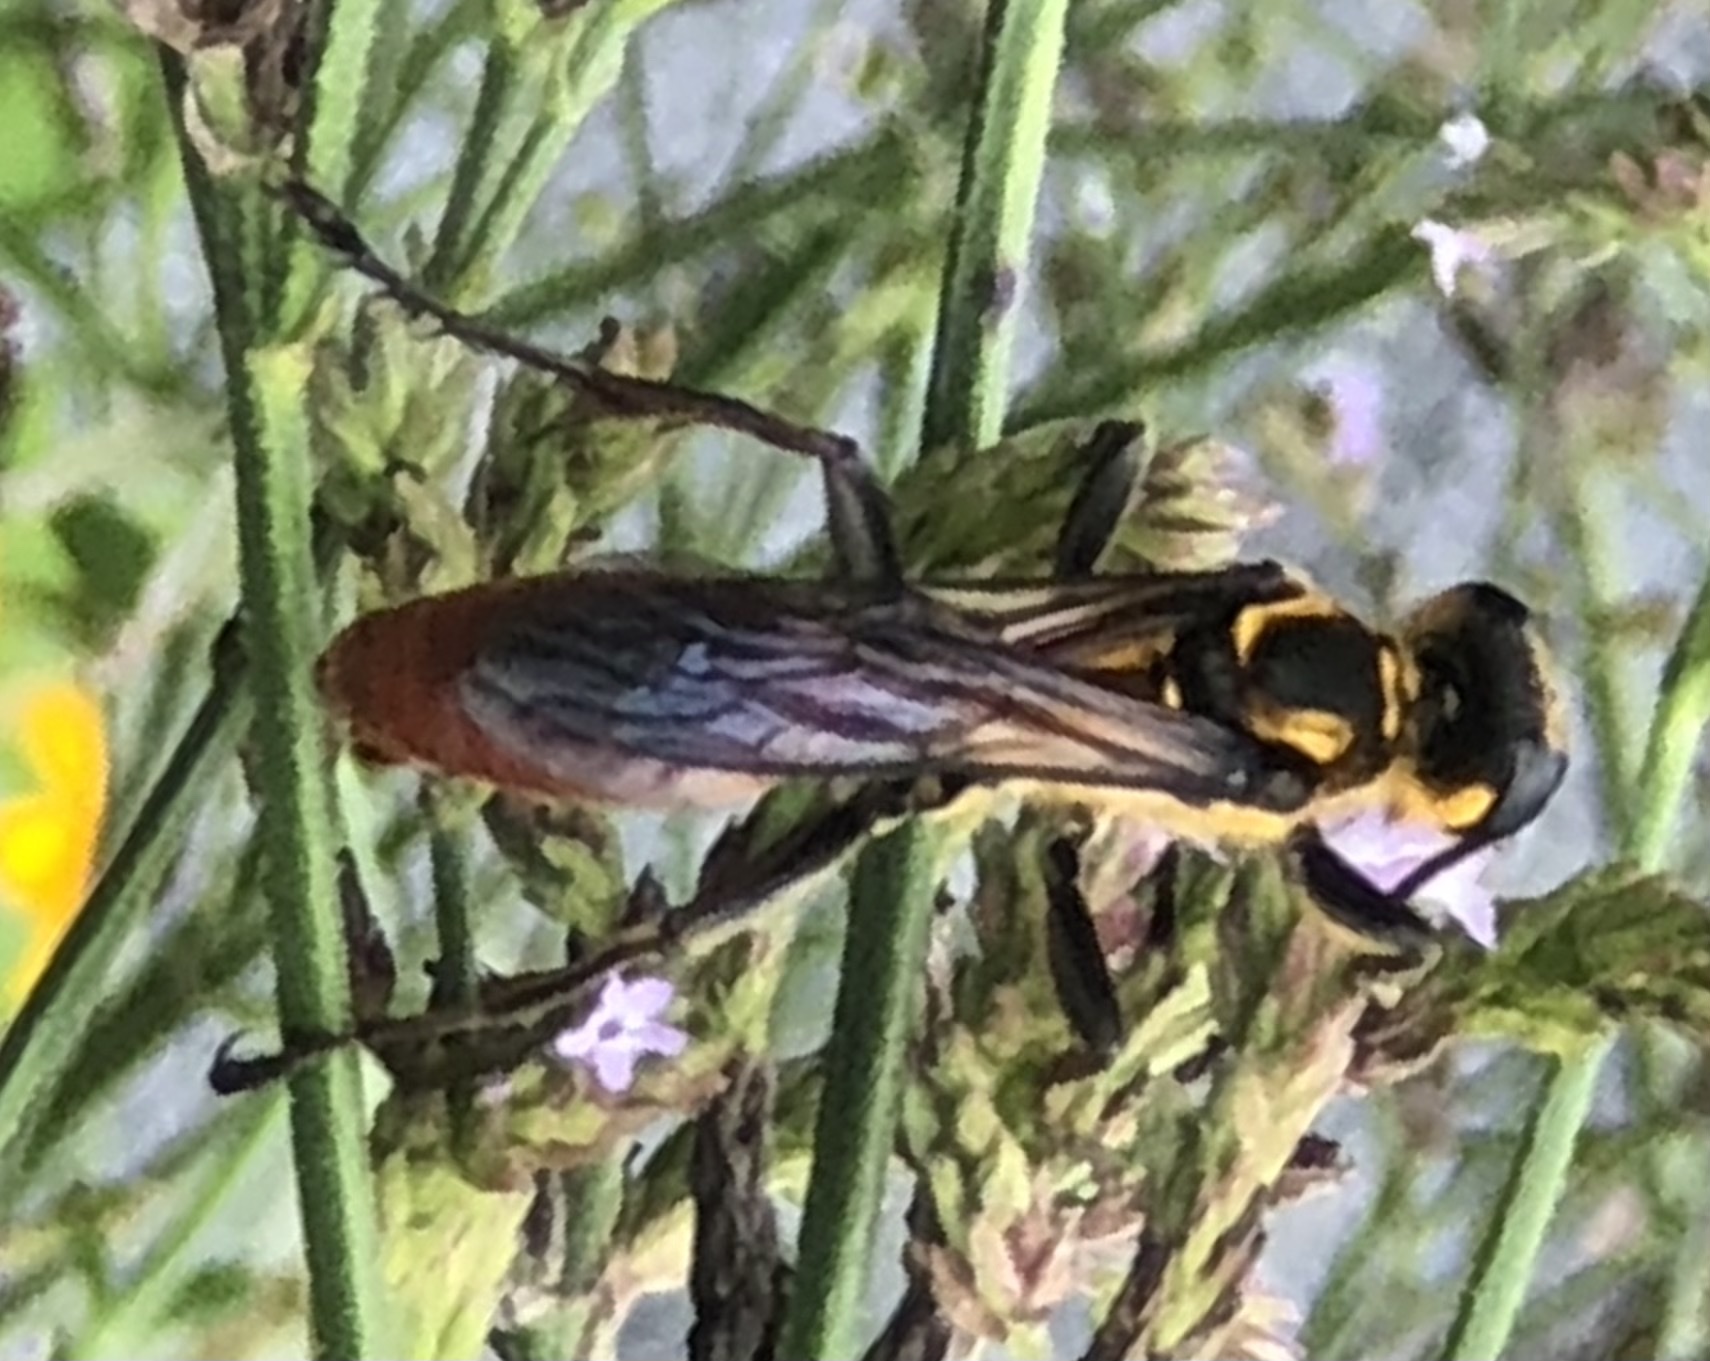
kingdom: Animalia
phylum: Arthropoda
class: Insecta
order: Hymenoptera
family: Sphecidae
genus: Sphex
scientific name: Sphex habenus
